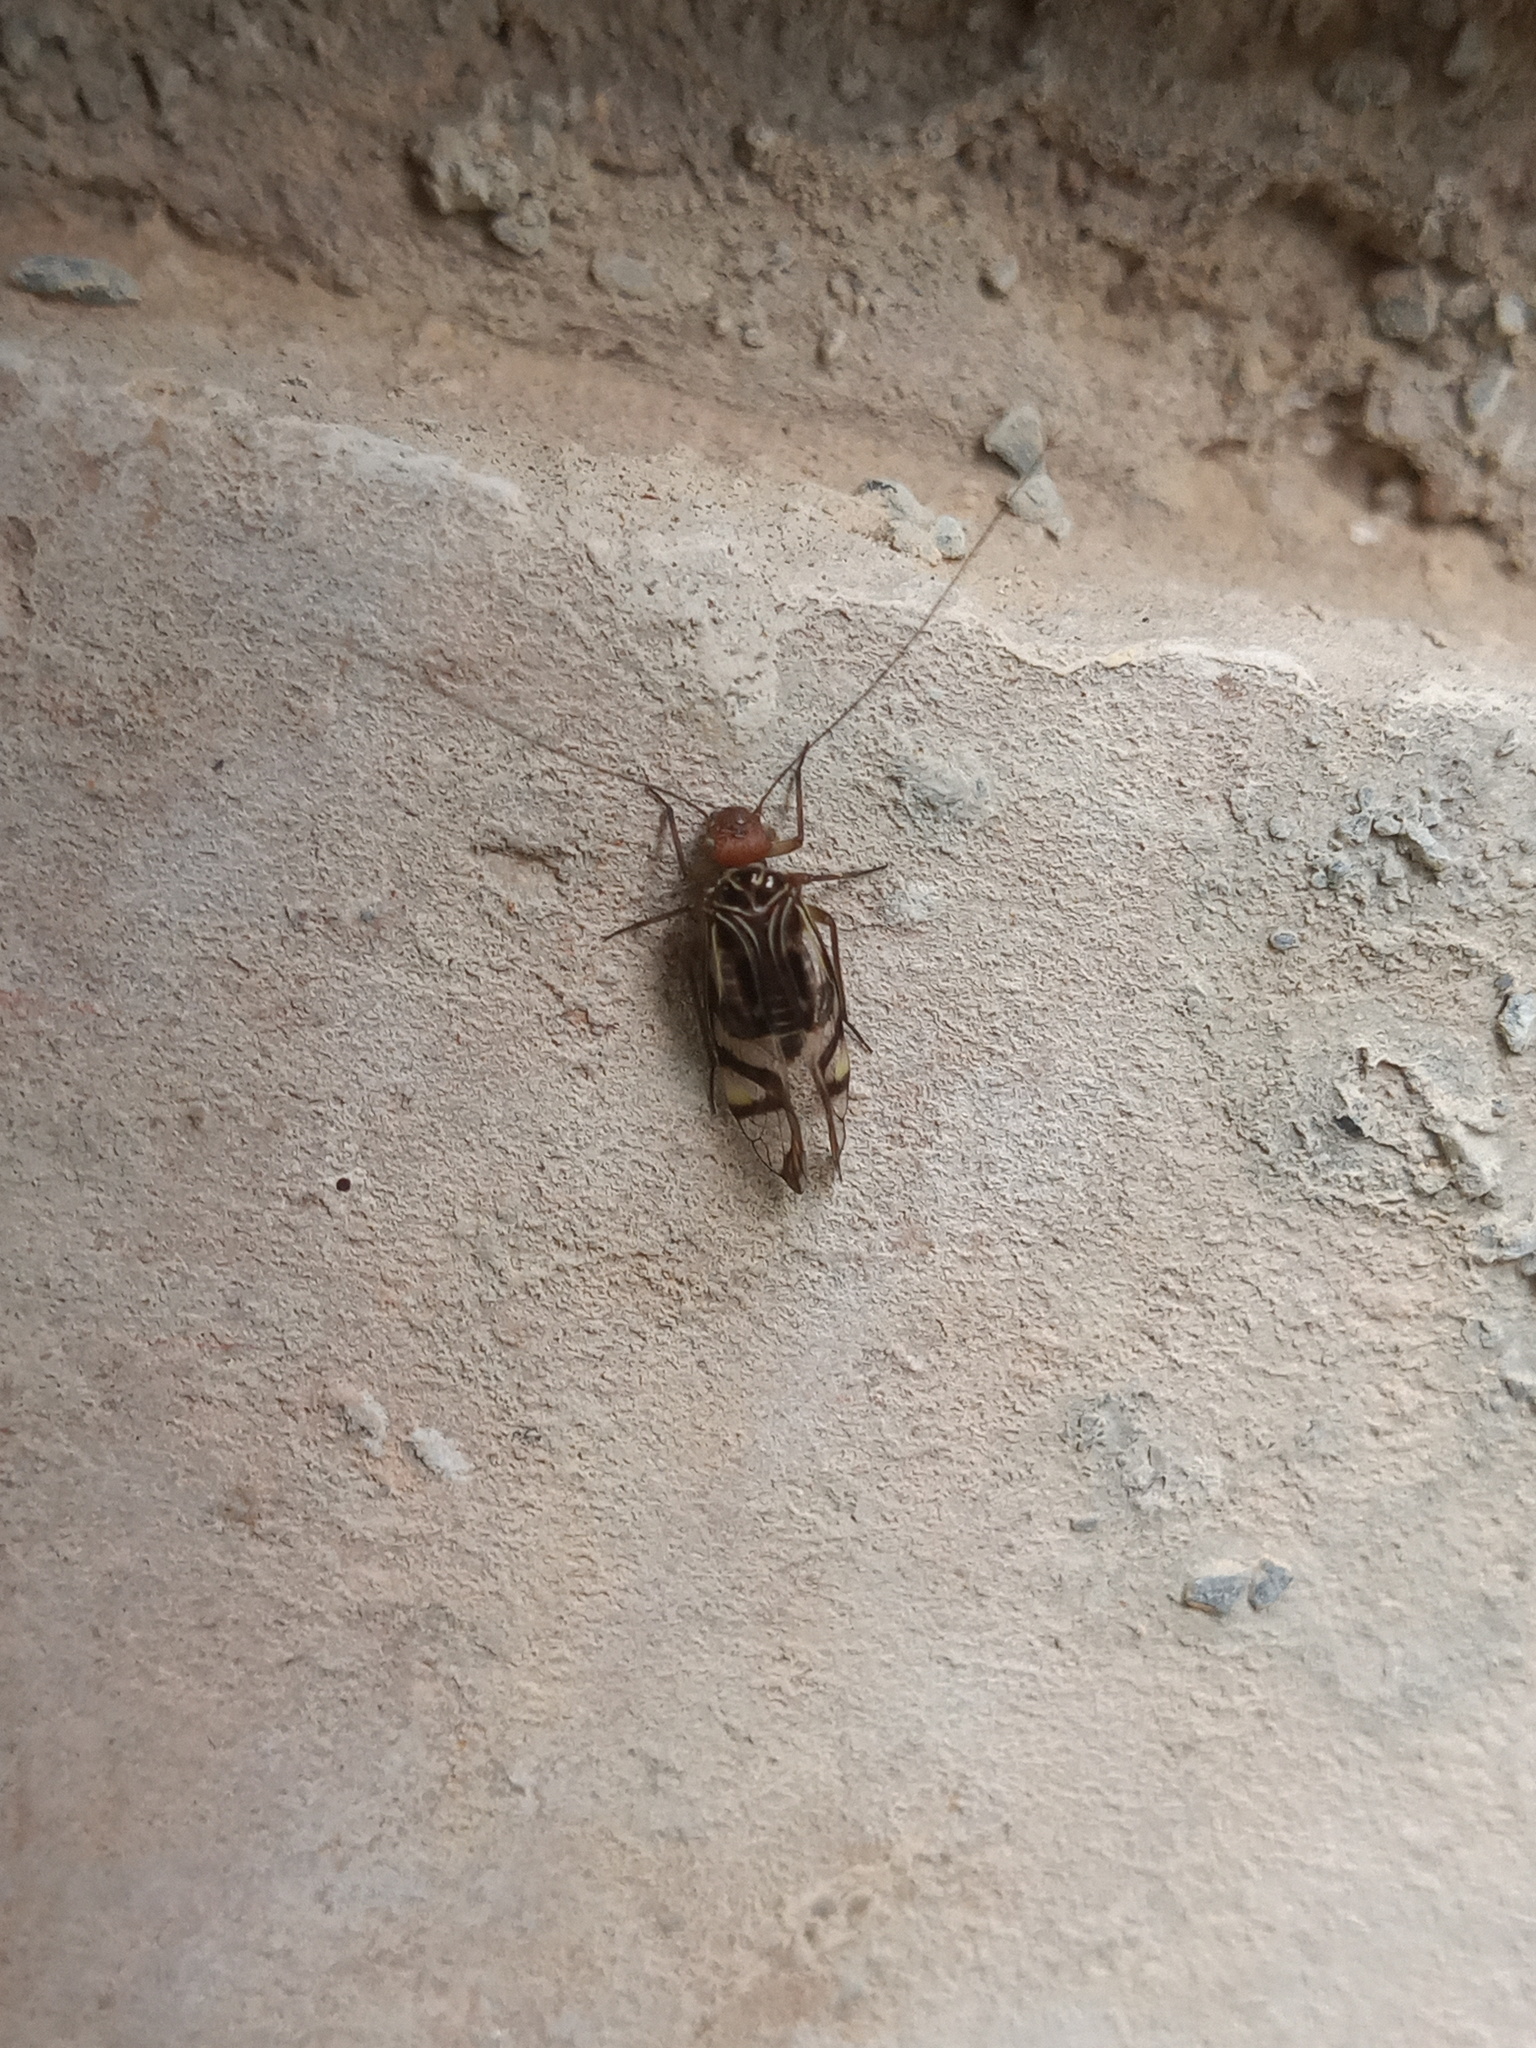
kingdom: Animalia
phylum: Arthropoda
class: Insecta
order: Psocodea
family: Psocidae
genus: Cerastipsocus
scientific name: Cerastipsocus trifasciatus
